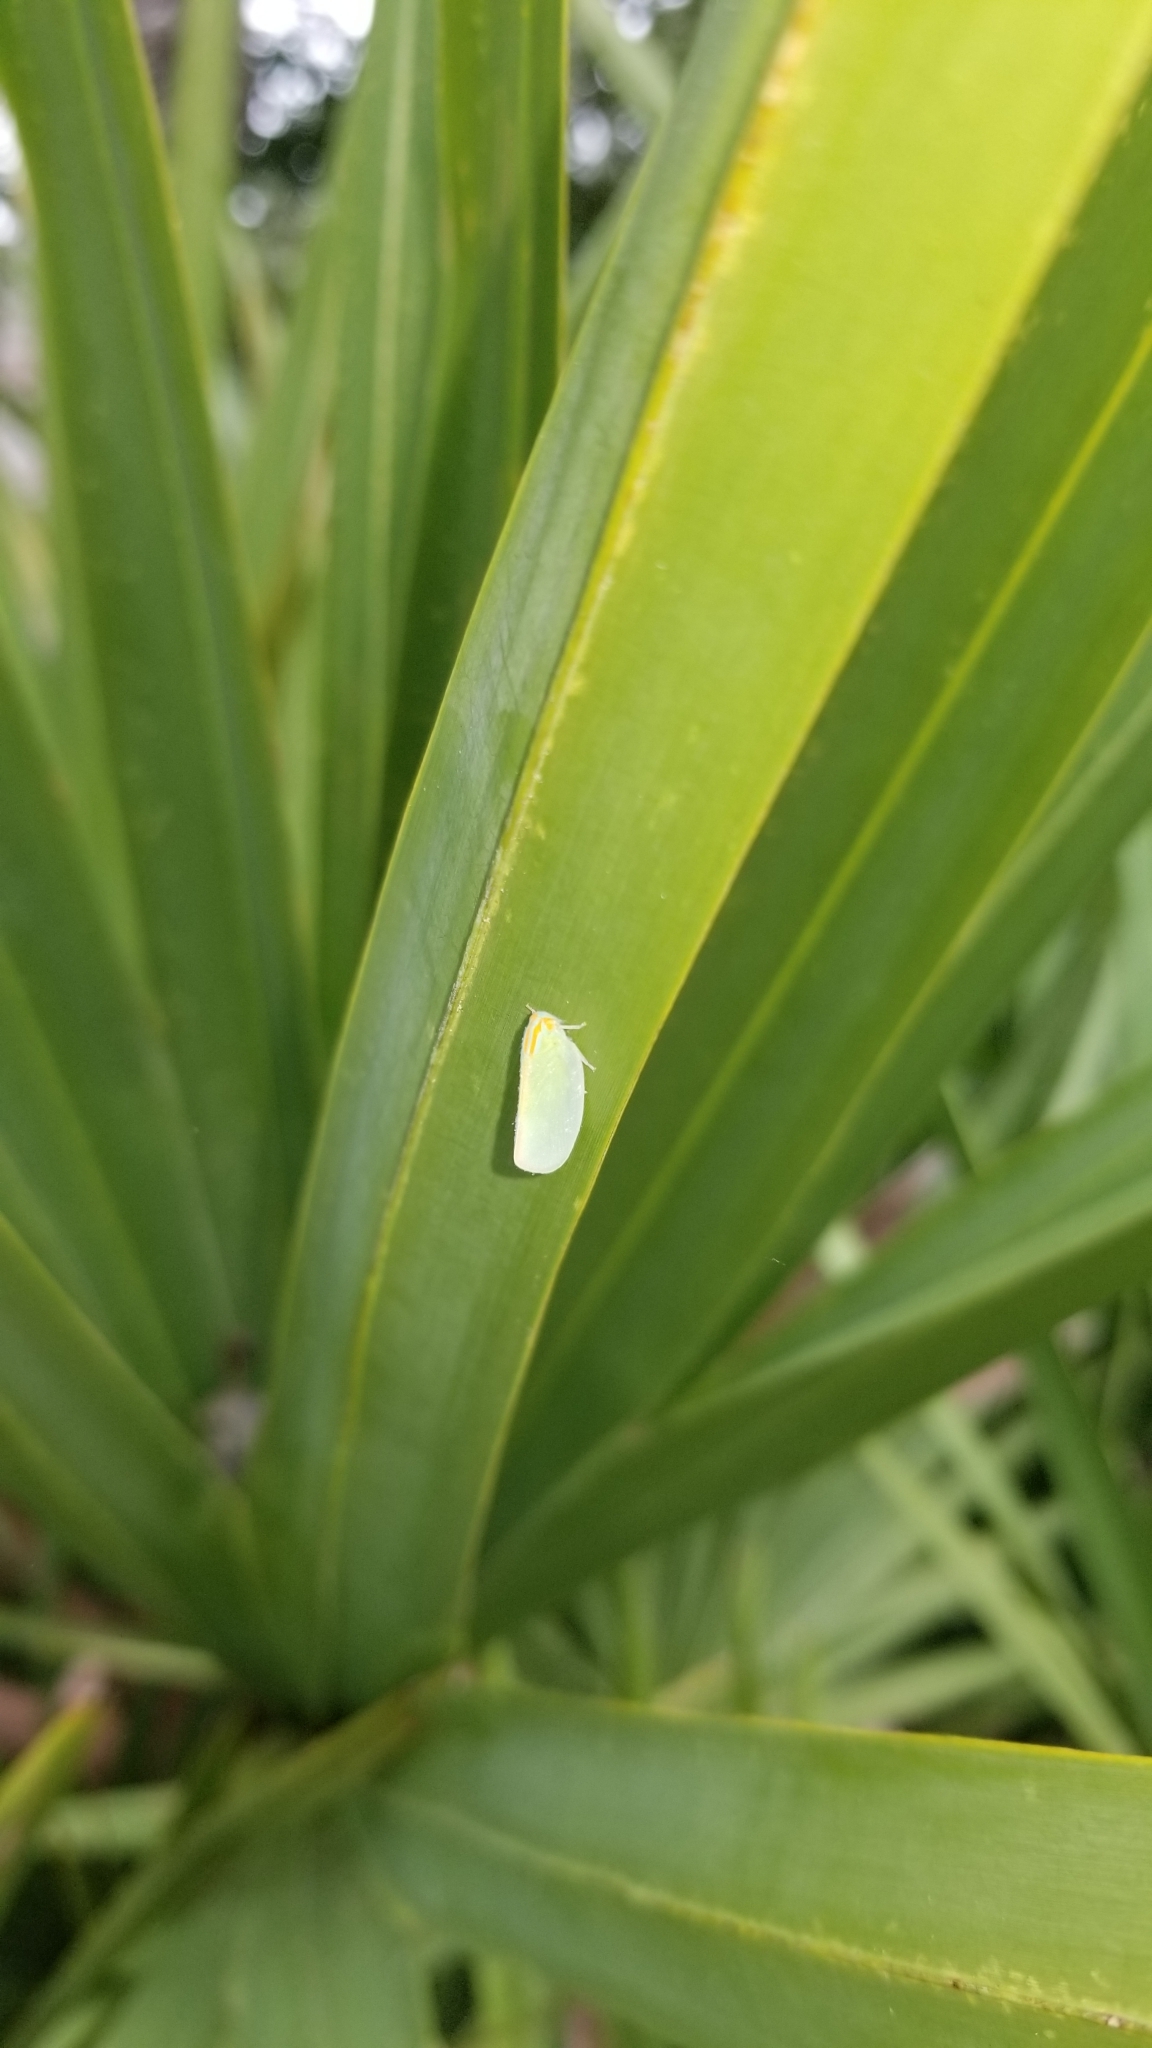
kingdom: Animalia
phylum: Arthropoda
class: Insecta
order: Hemiptera
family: Flatidae
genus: Ormenaria
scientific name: Ormenaria rufifascia
